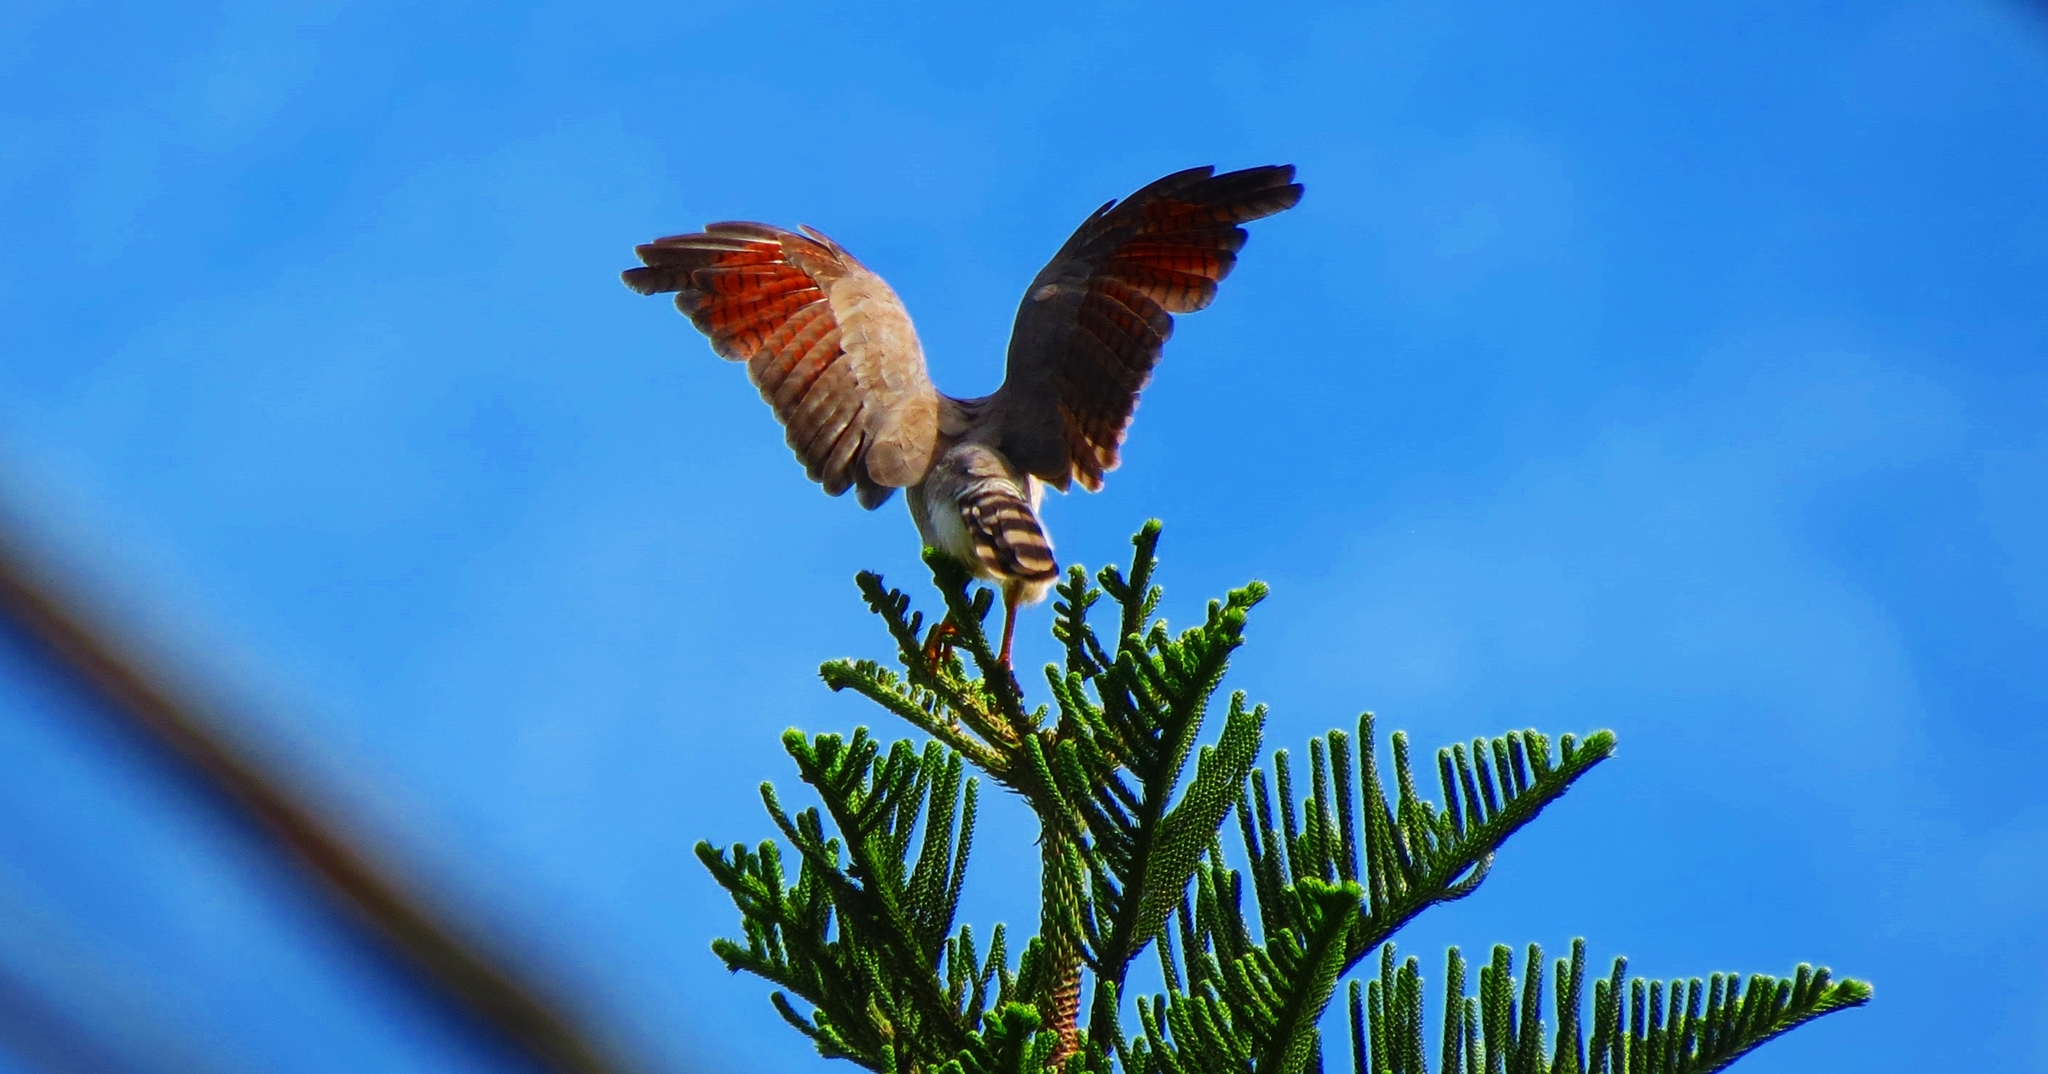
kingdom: Animalia
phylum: Chordata
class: Aves
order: Accipitriformes
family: Accipitridae
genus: Rupornis
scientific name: Rupornis magnirostris
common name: Roadside hawk
